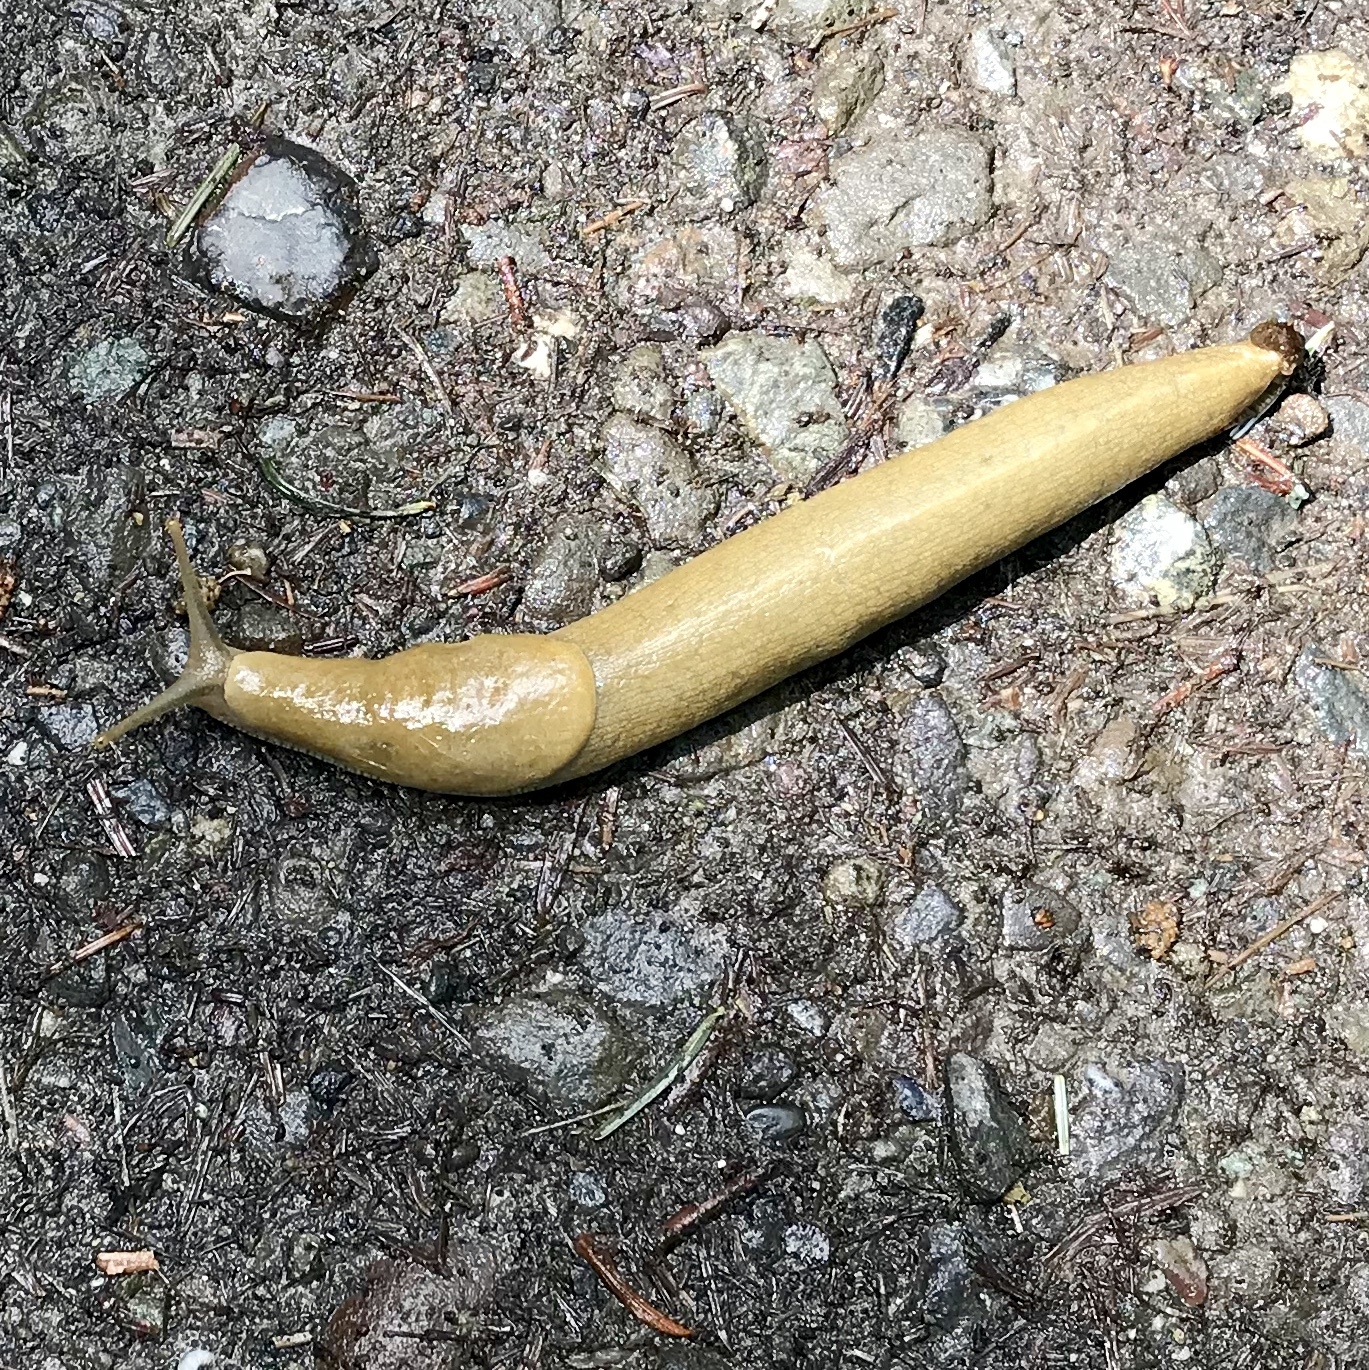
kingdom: Animalia
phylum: Mollusca
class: Gastropoda
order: Stylommatophora
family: Ariolimacidae
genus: Ariolimax
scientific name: Ariolimax columbianus
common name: Pacific banana slug
